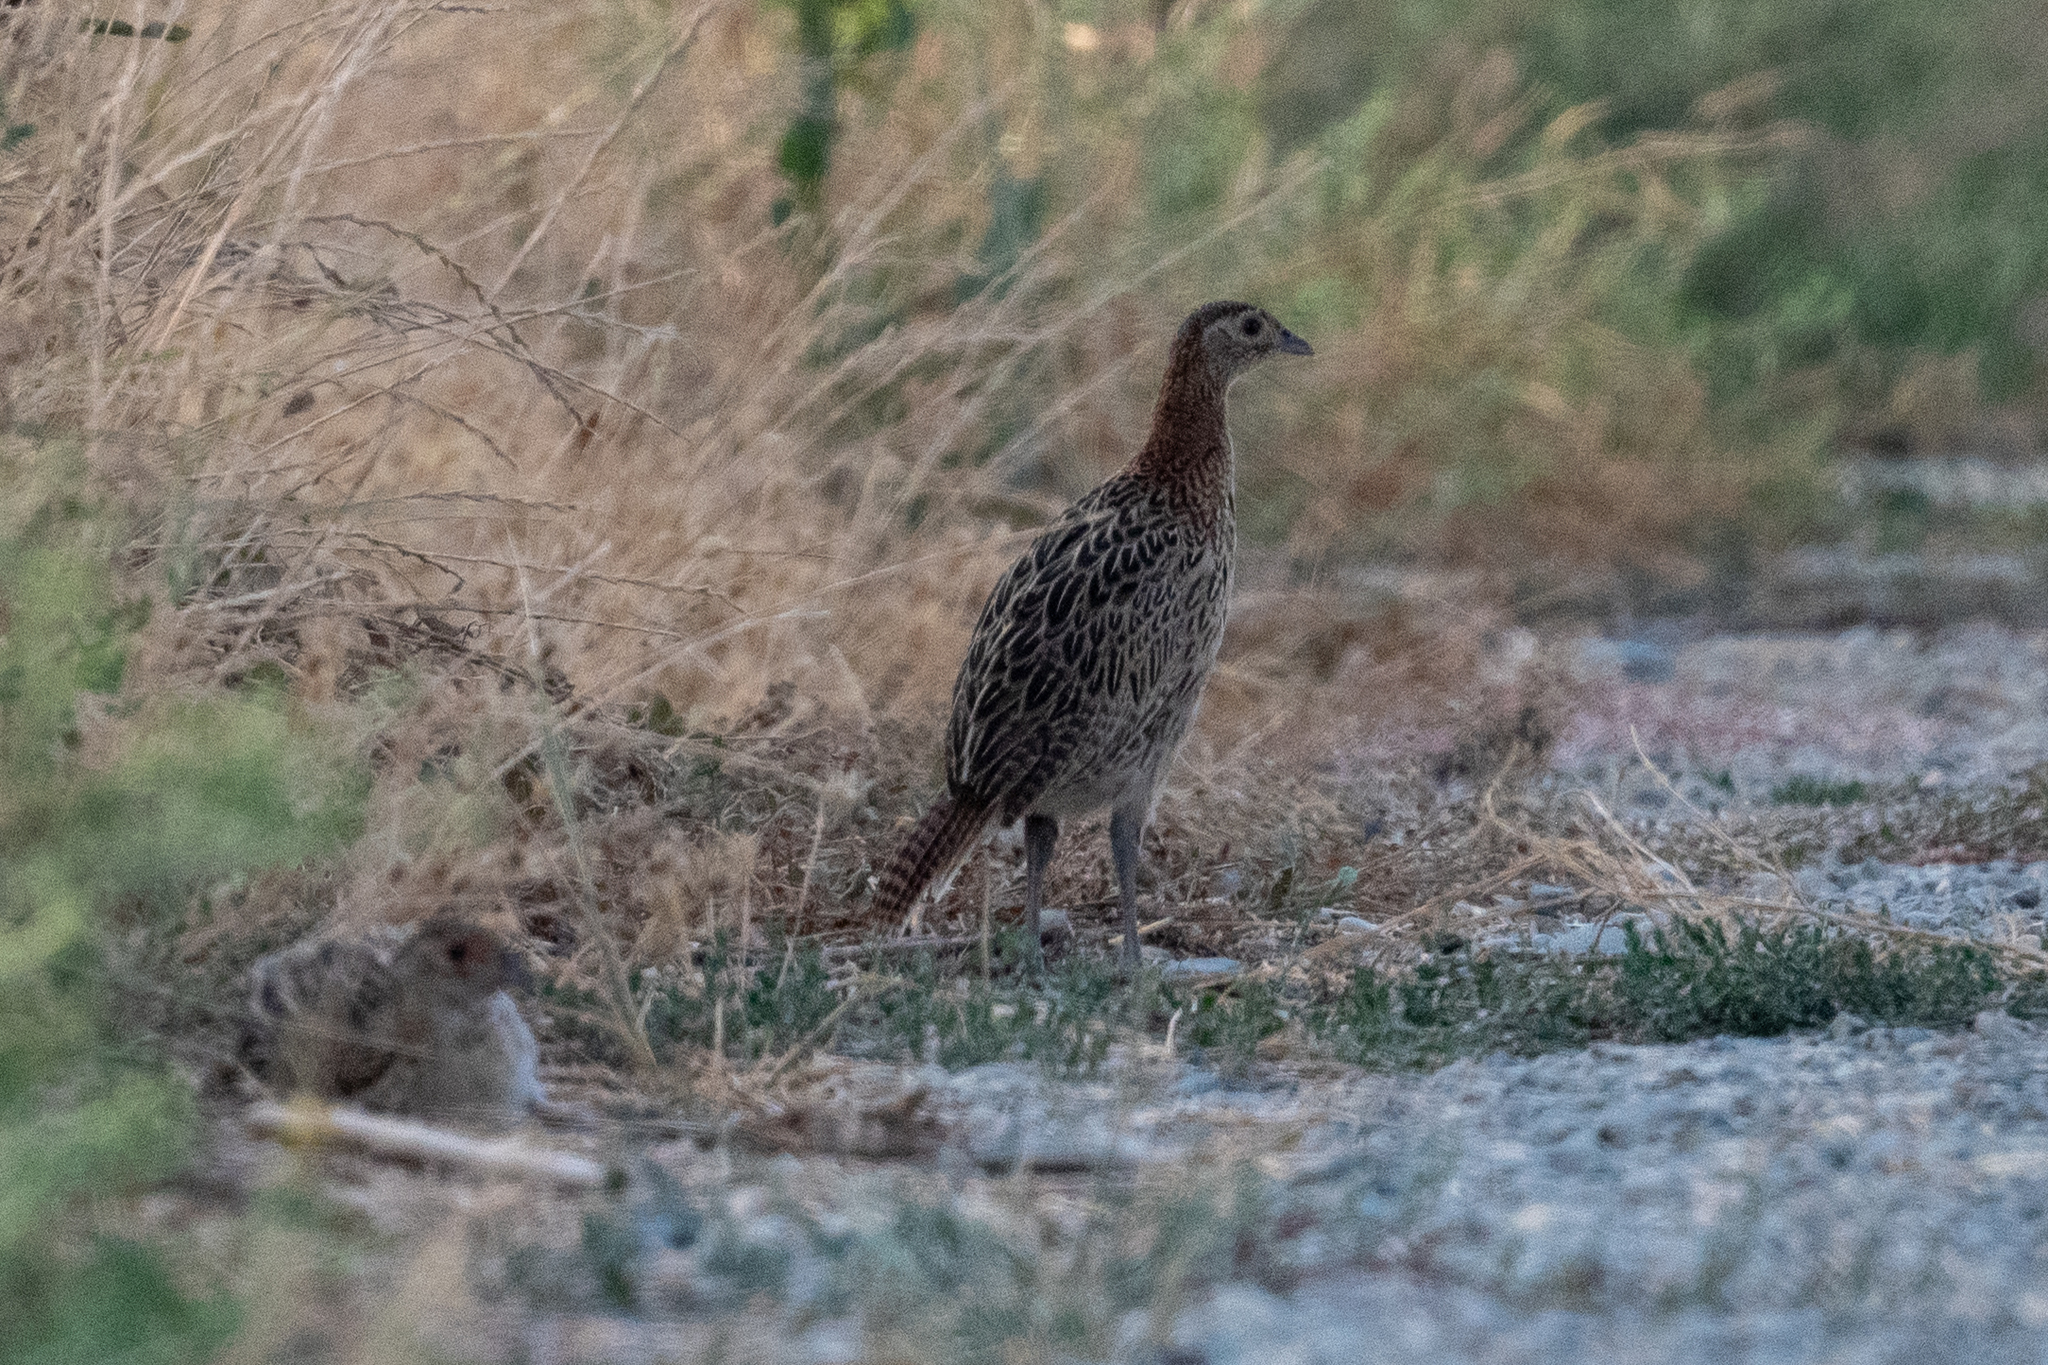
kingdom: Animalia
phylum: Chordata
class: Aves
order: Galliformes
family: Phasianidae
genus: Phasianus
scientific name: Phasianus colchicus
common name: Common pheasant
